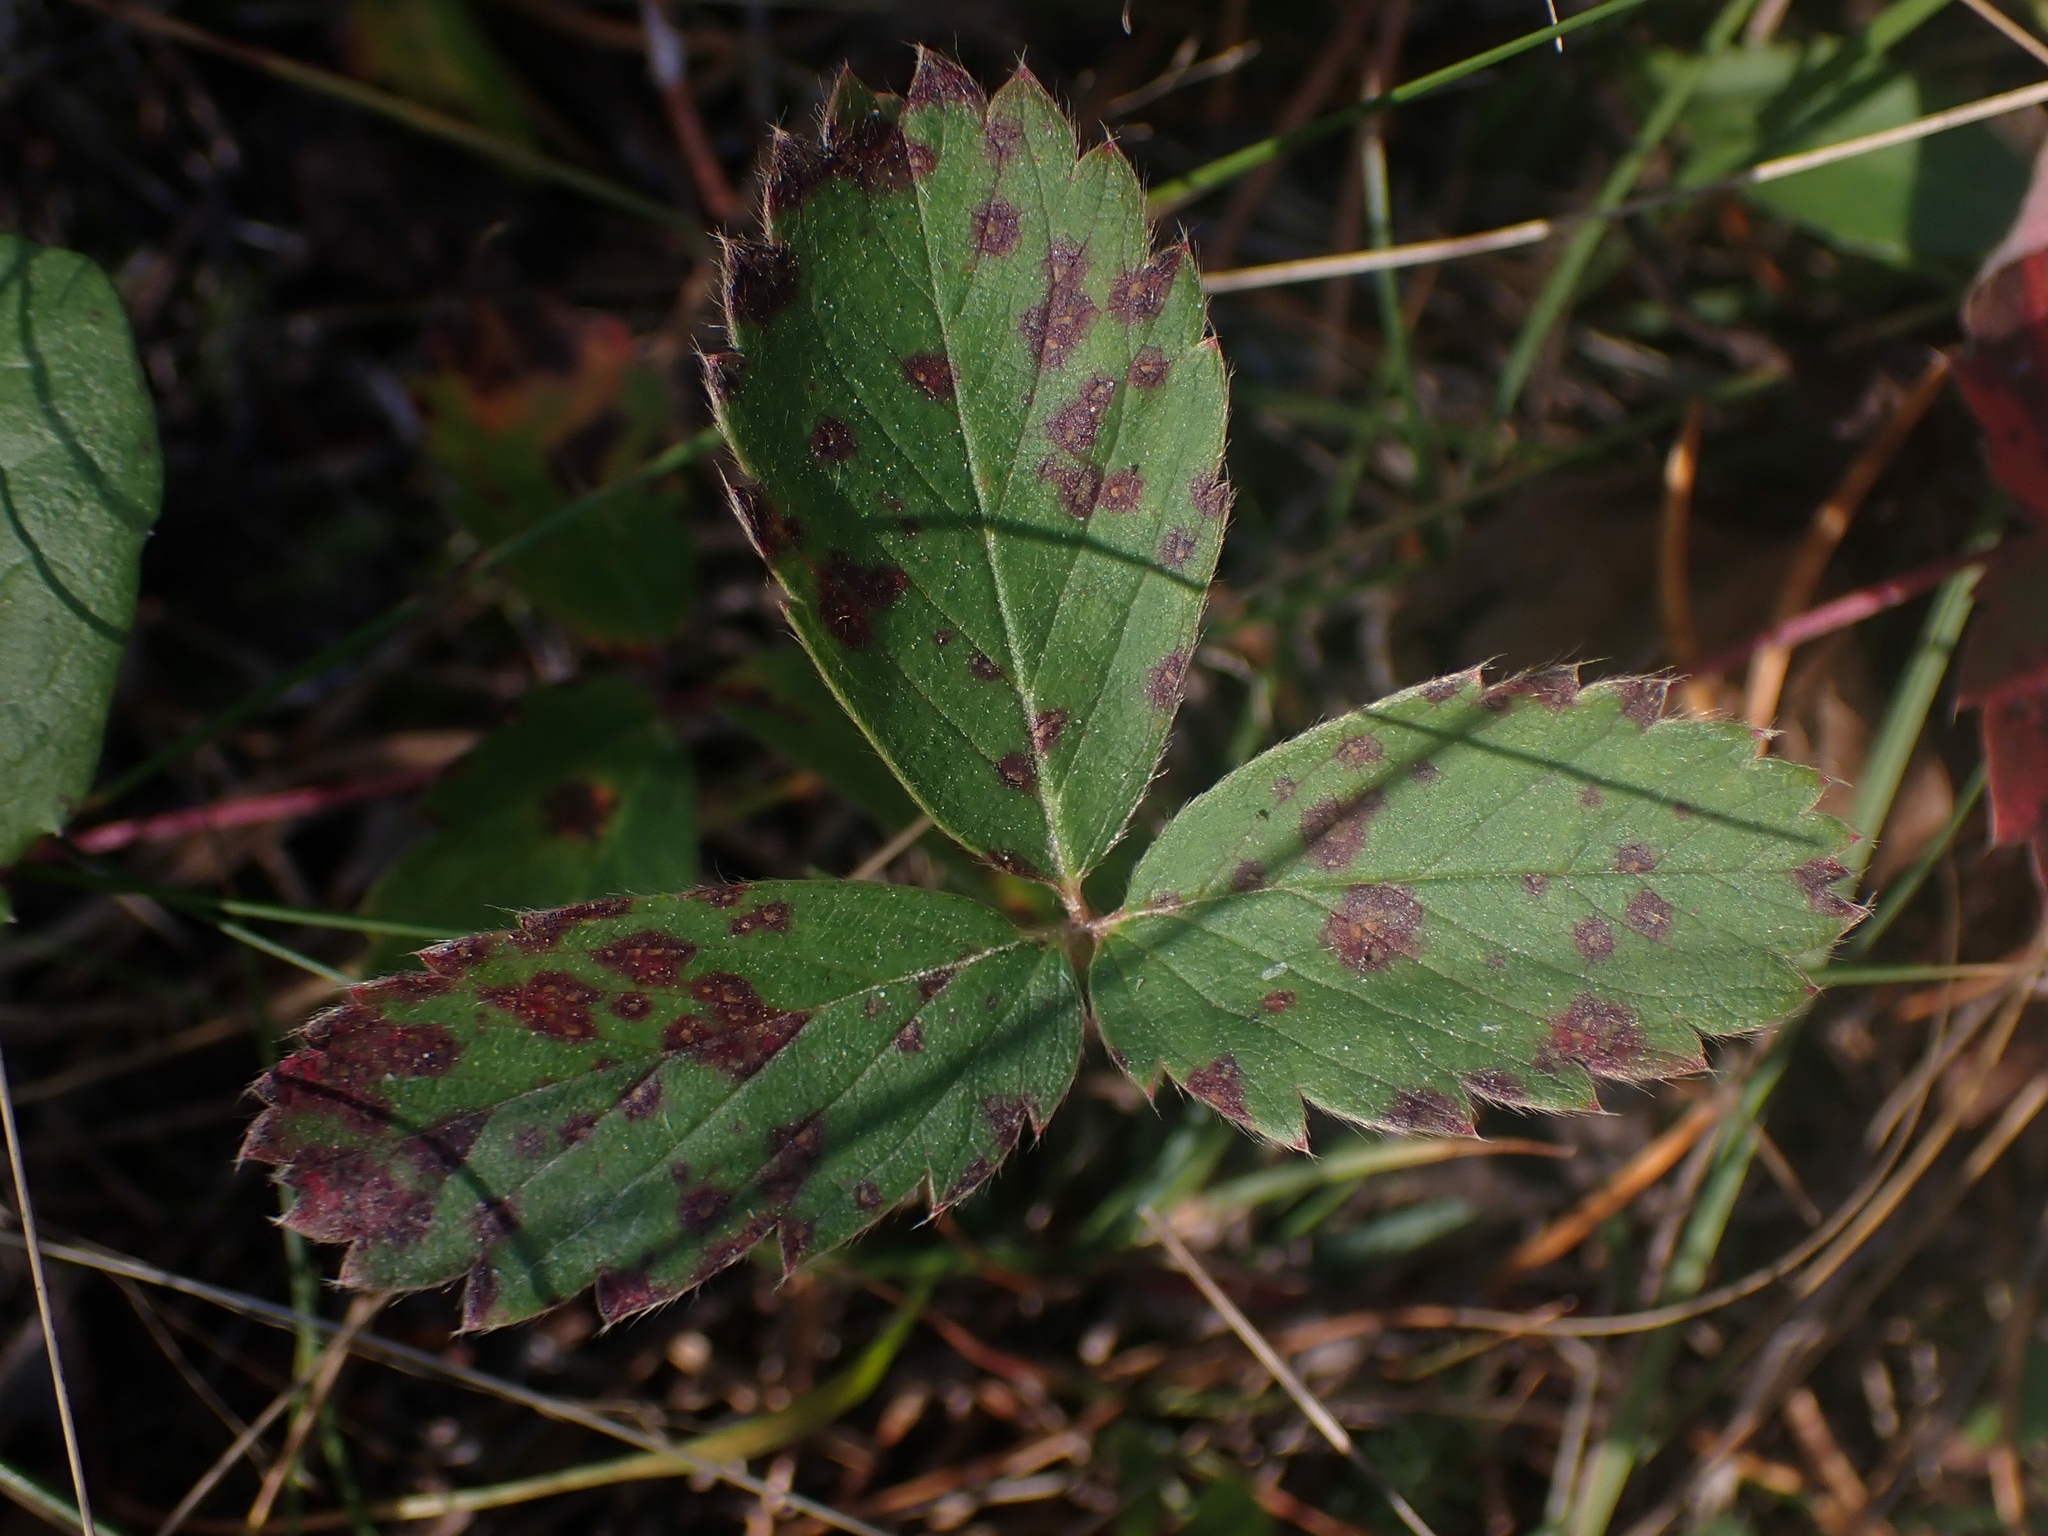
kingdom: Plantae
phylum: Tracheophyta
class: Magnoliopsida
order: Rosales
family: Rosaceae
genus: Fragaria
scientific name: Fragaria virginiana
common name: Thickleaved wild strawberry
